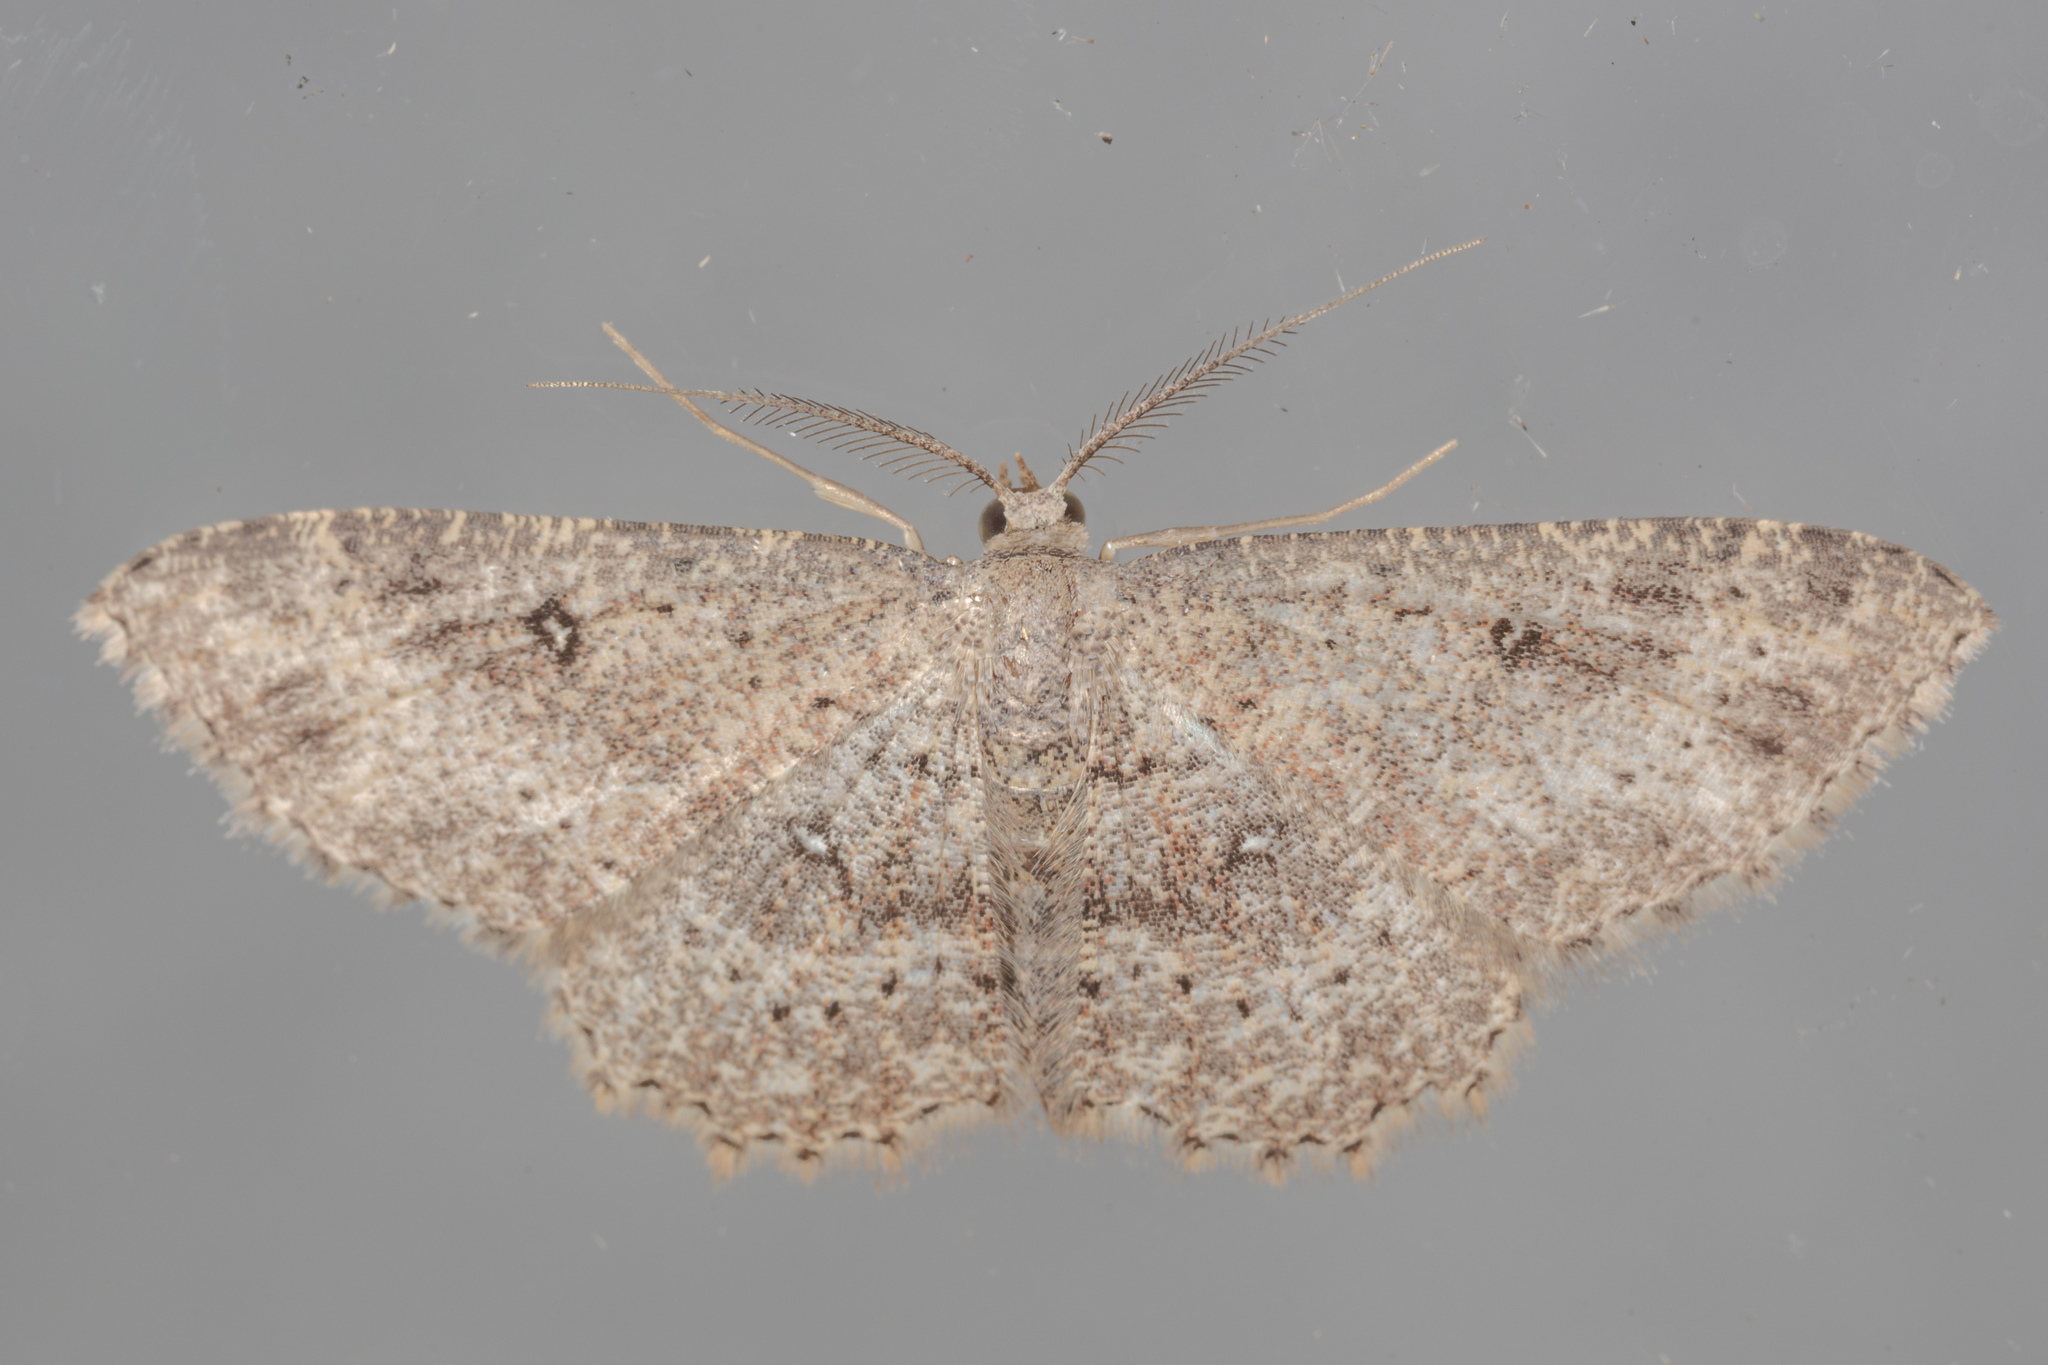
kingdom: Animalia
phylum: Arthropoda
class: Insecta
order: Lepidoptera
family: Geometridae
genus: Cyclophora
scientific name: Cyclophora nanaria
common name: Cankerworm
